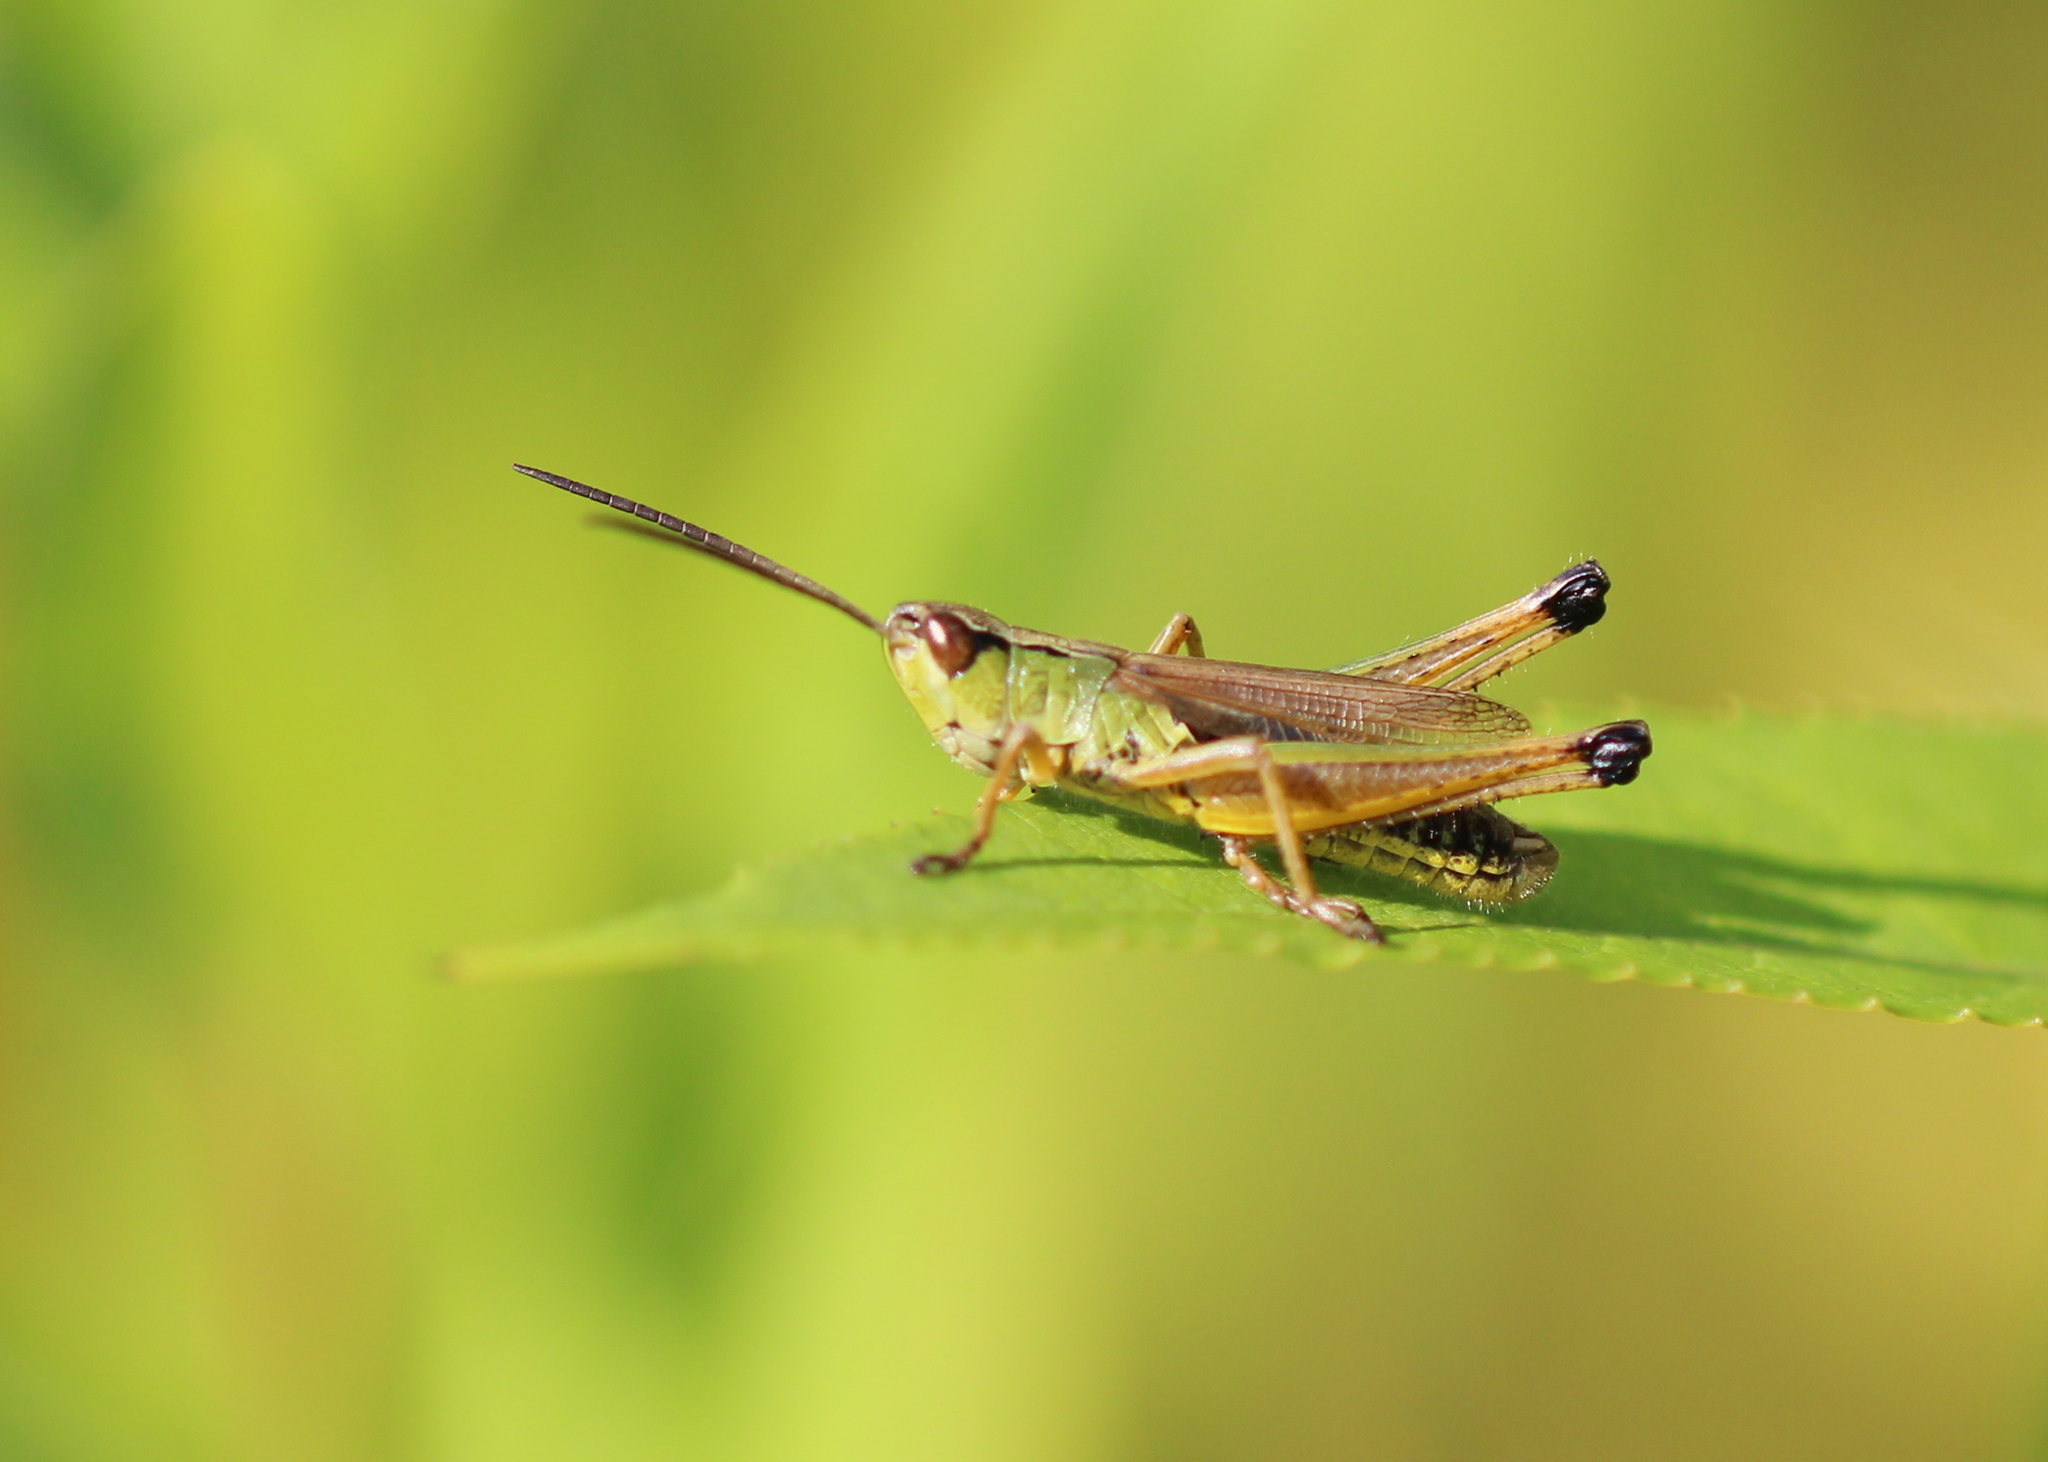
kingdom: Animalia
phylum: Arthropoda
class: Insecta
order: Orthoptera
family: Acrididae
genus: Pseudochorthippus
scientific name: Pseudochorthippus curtipennis
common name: Marsh meadow grasshopper
